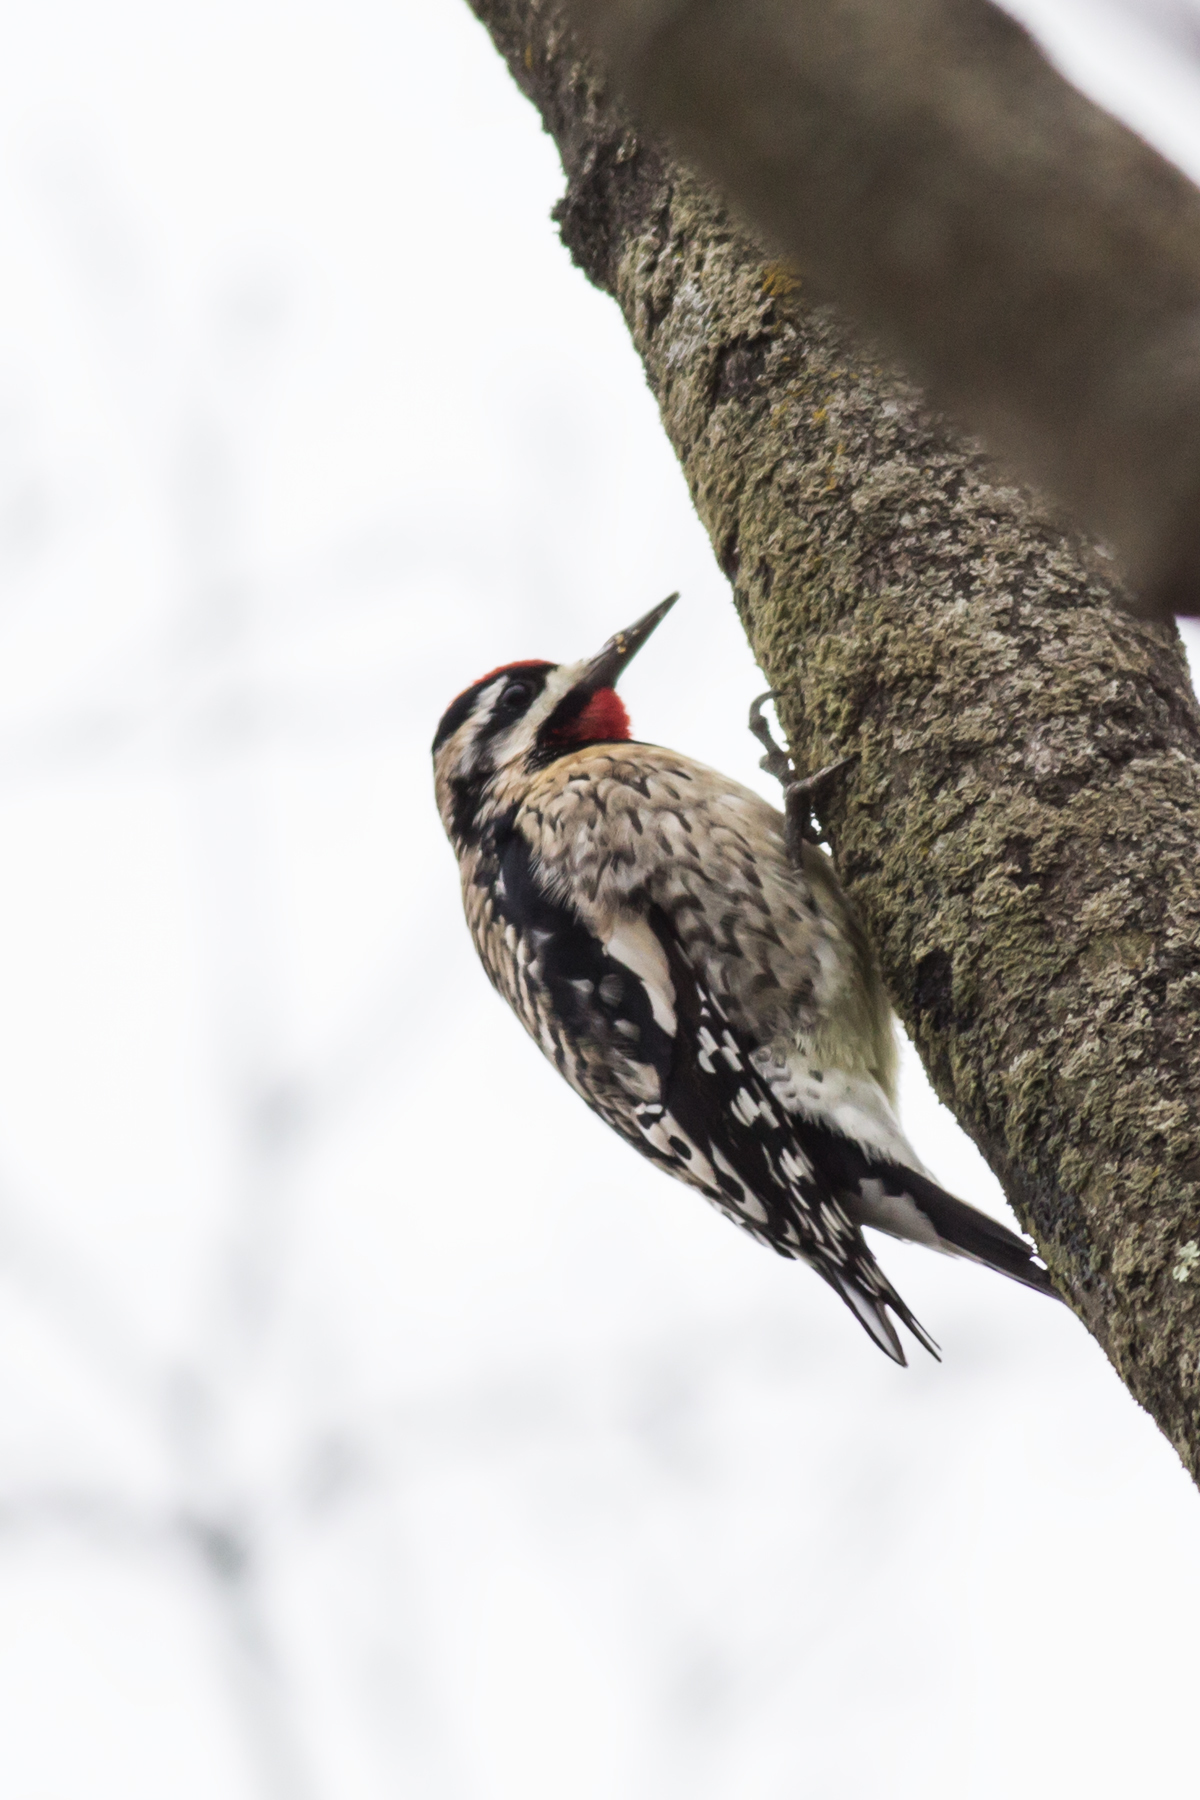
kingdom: Animalia
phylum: Chordata
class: Aves
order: Piciformes
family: Picidae
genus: Sphyrapicus
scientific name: Sphyrapicus varius
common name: Yellow-bellied sapsucker
